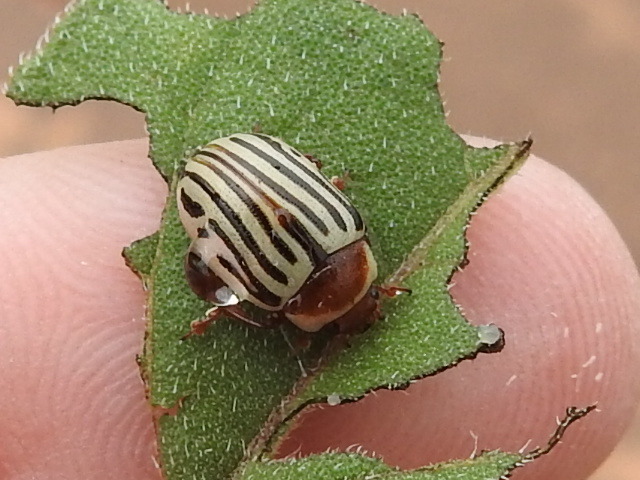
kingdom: Animalia
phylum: Arthropoda
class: Insecta
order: Coleoptera
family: Chrysomelidae
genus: Calligrapha
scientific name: Calligrapha
